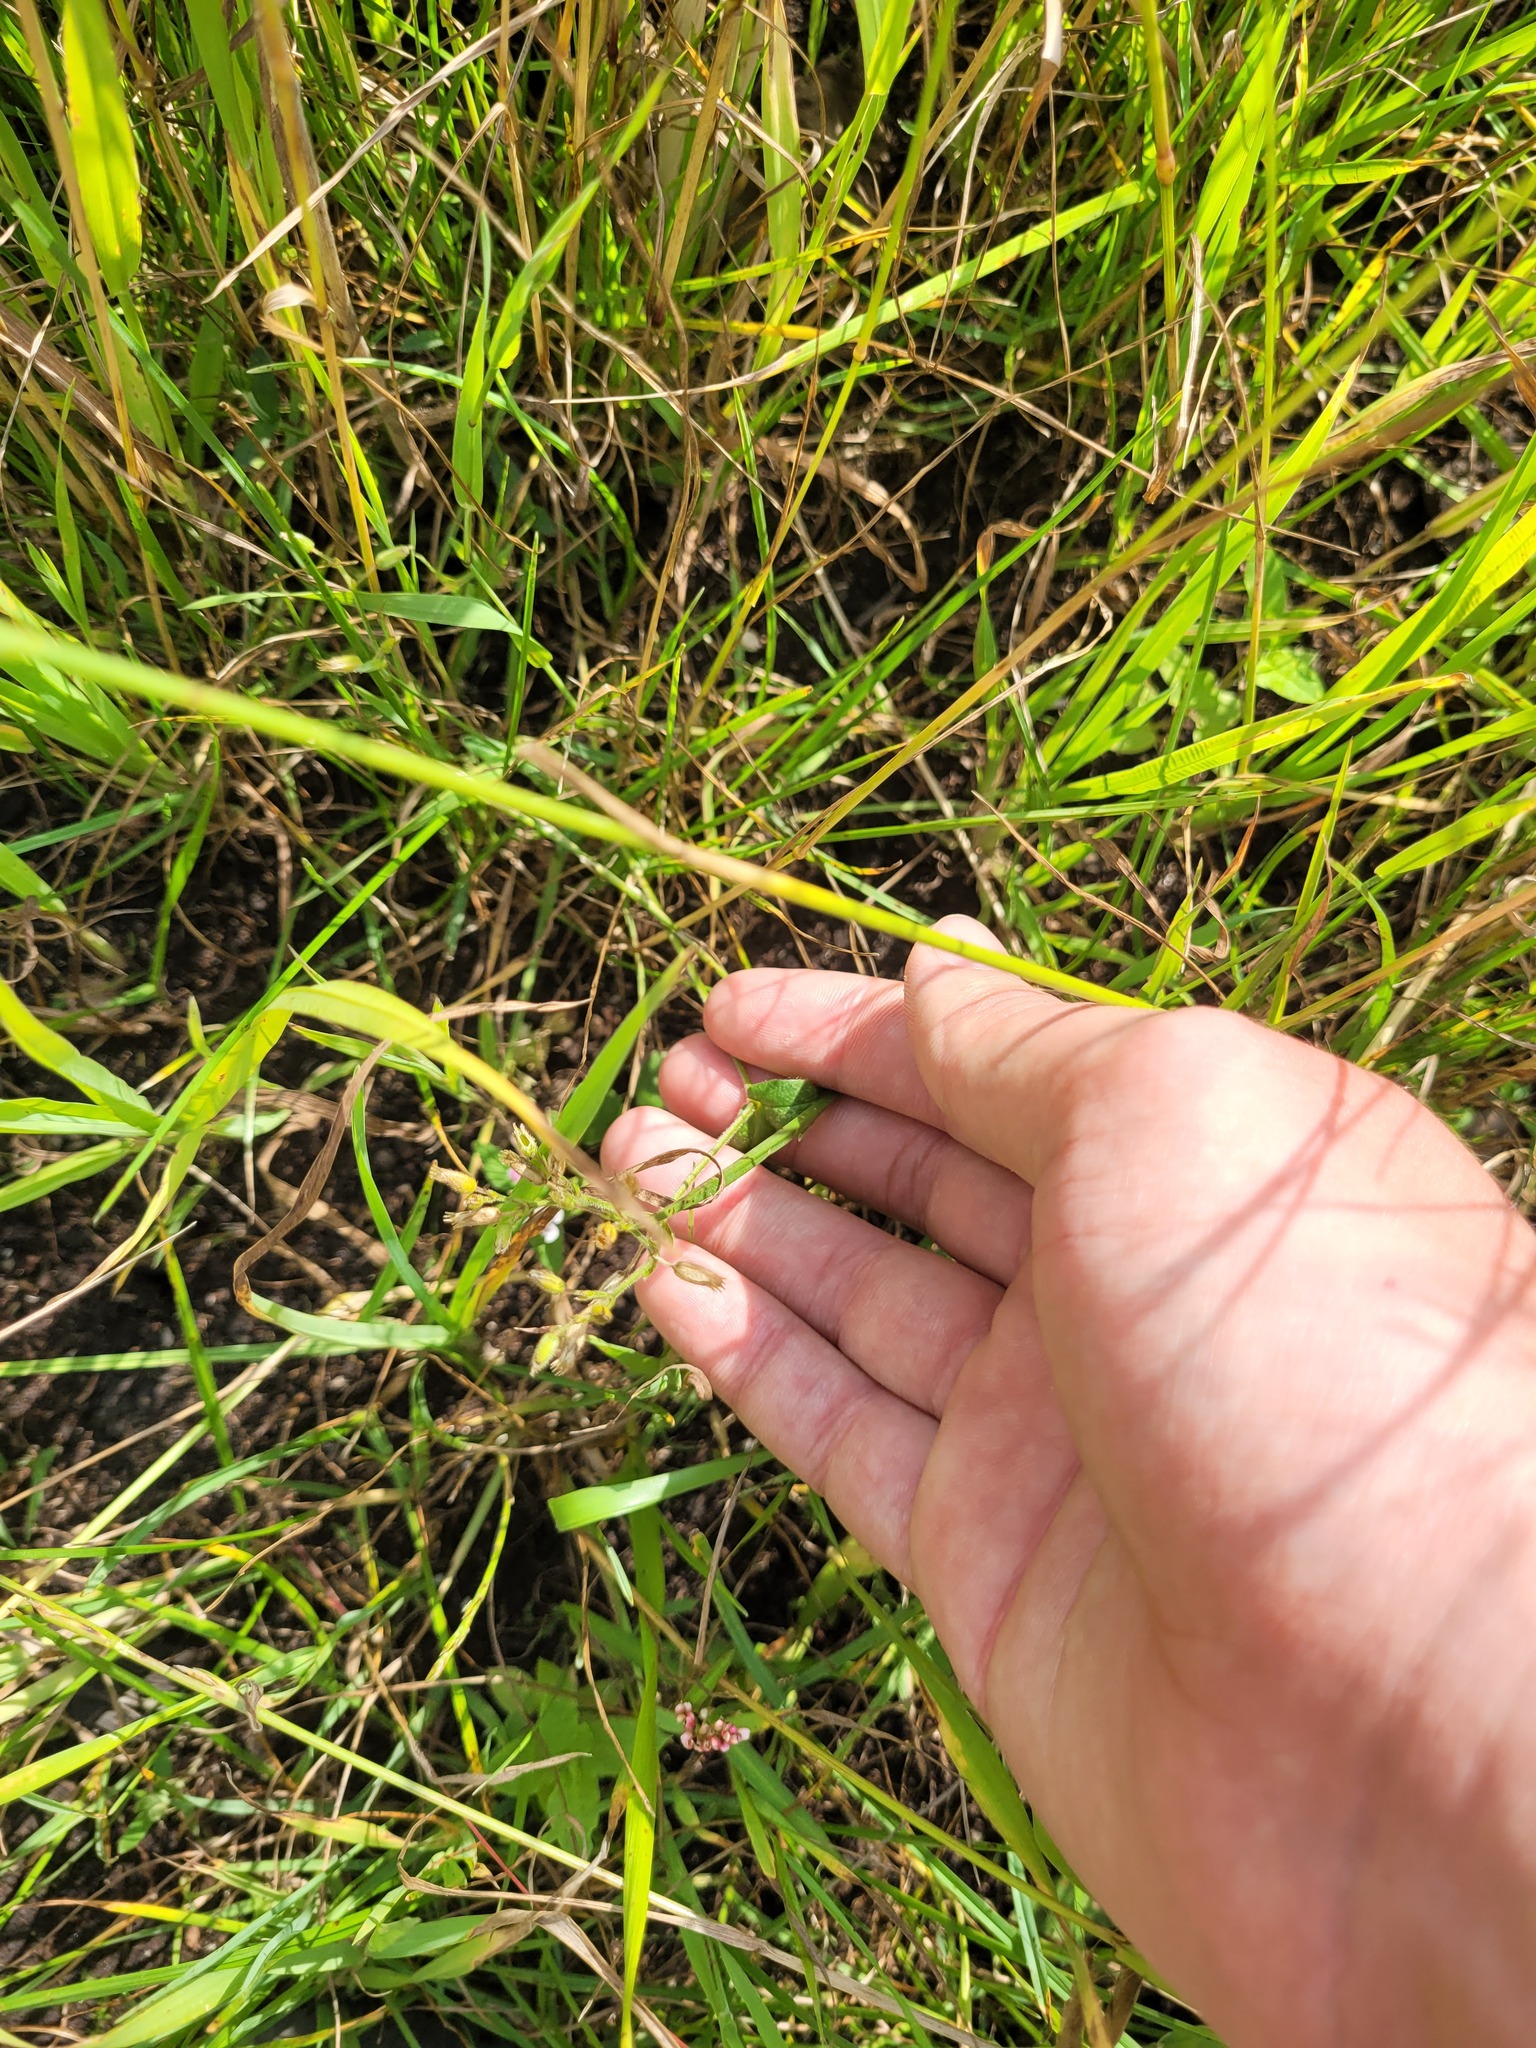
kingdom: Plantae
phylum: Tracheophyta
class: Magnoliopsida
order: Caryophyllales
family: Caryophyllaceae
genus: Cerastium
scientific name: Cerastium holosteoides
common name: Big chickweed
